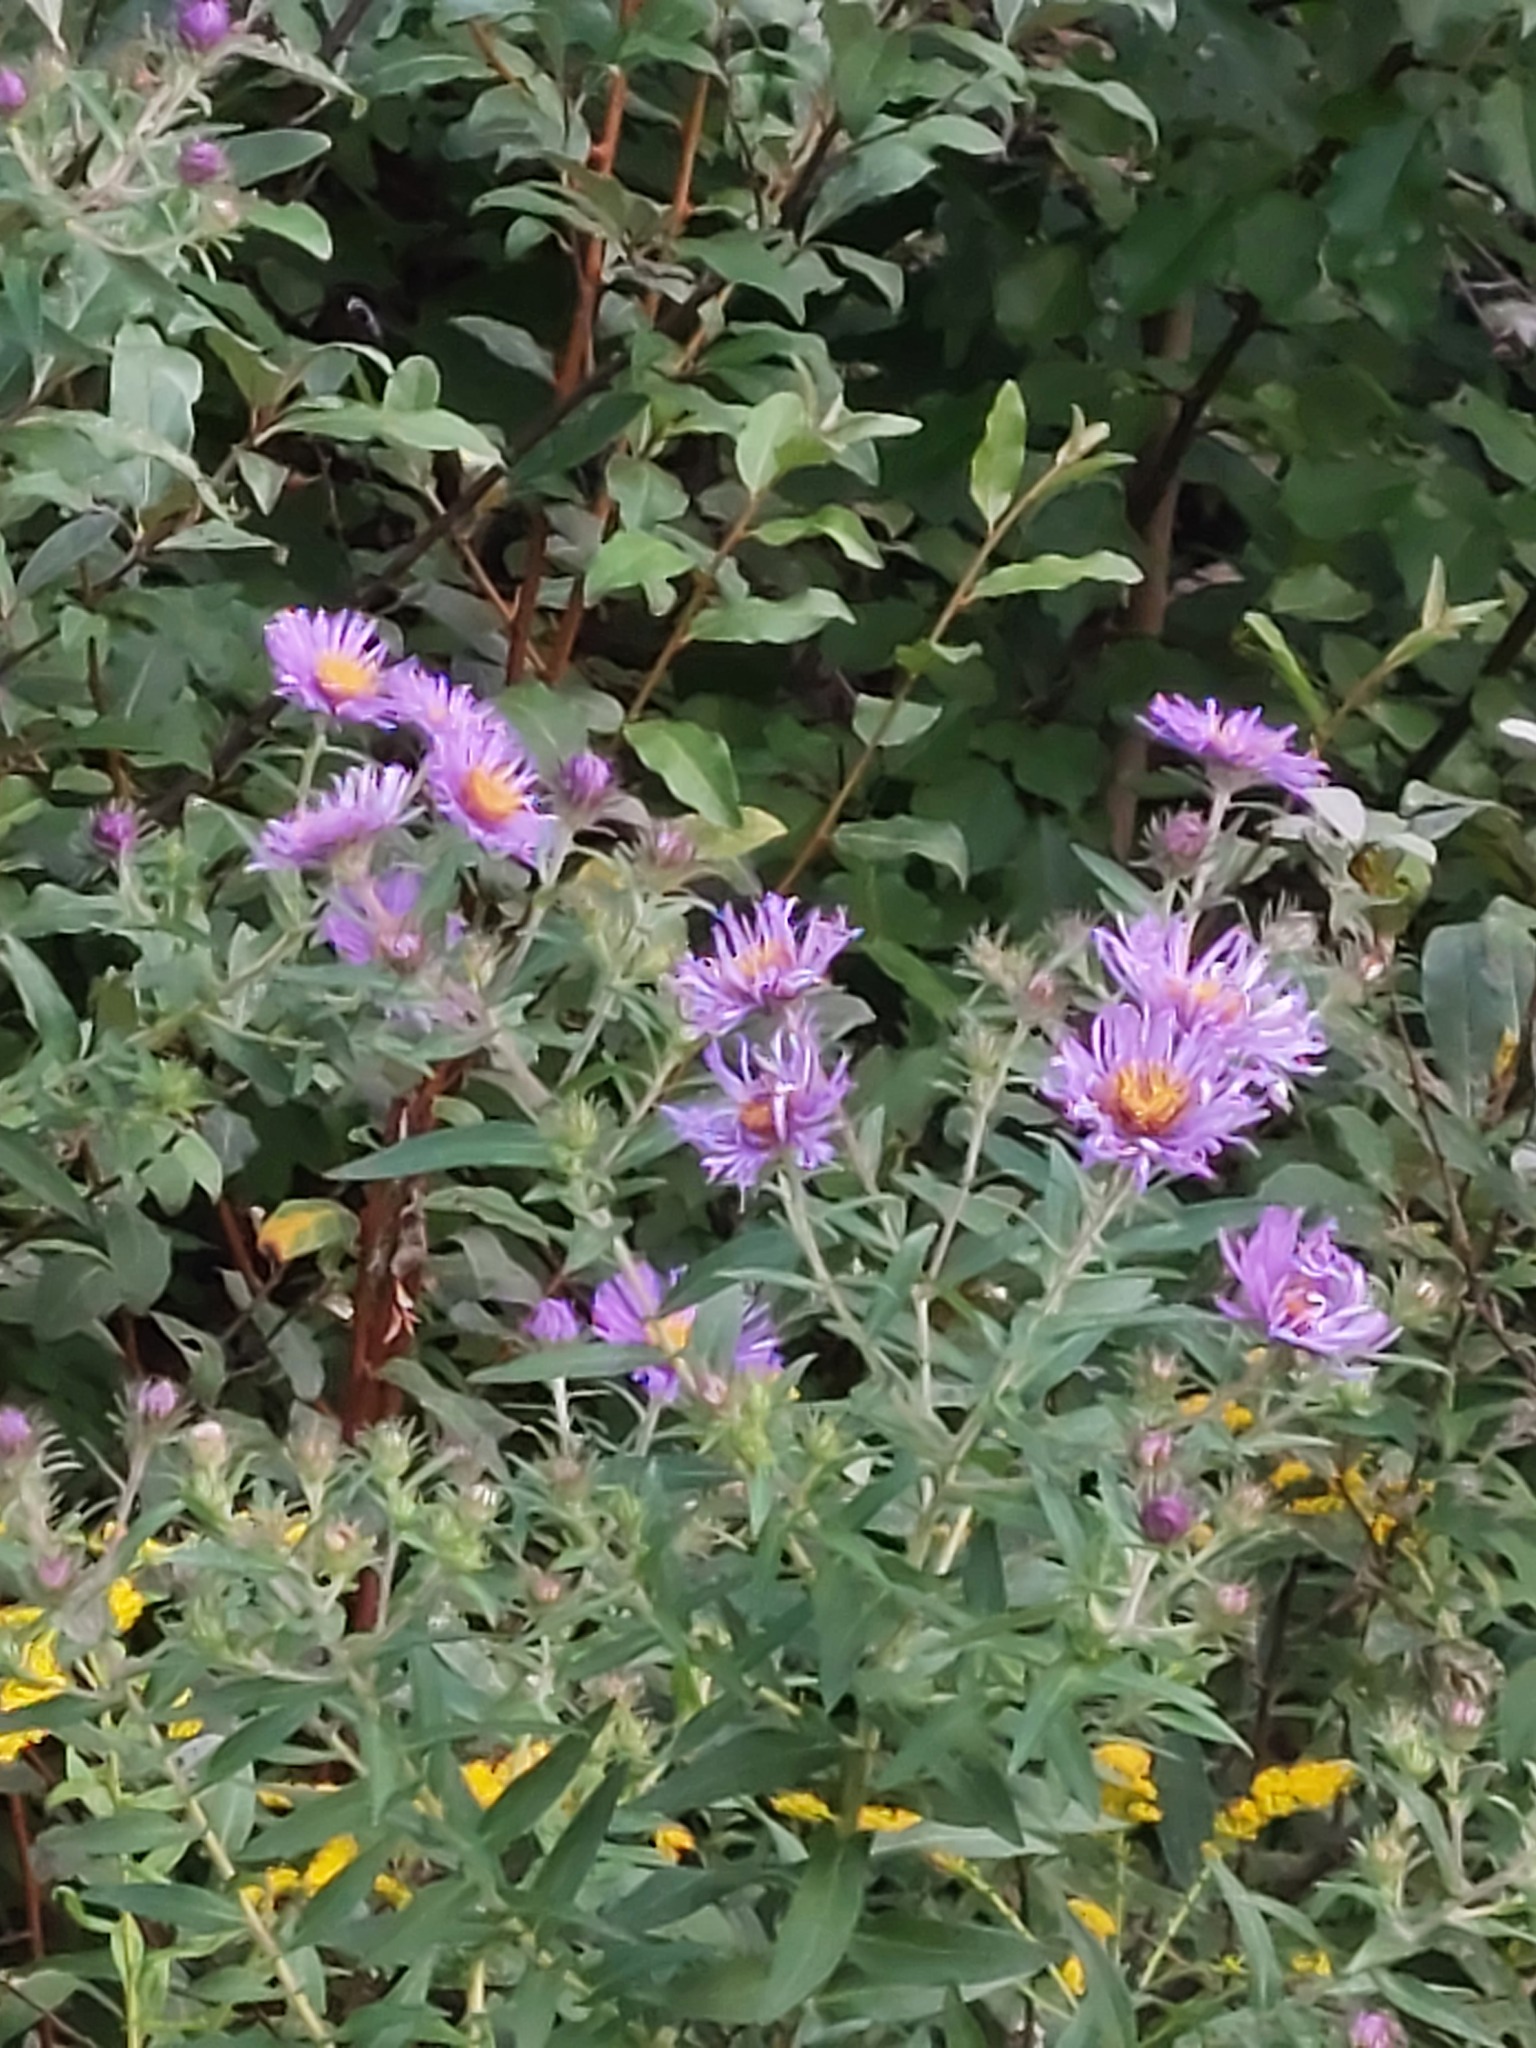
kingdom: Plantae
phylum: Tracheophyta
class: Magnoliopsida
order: Asterales
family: Asteraceae
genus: Symphyotrichum
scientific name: Symphyotrichum novae-angliae
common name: Michaelmas daisy
